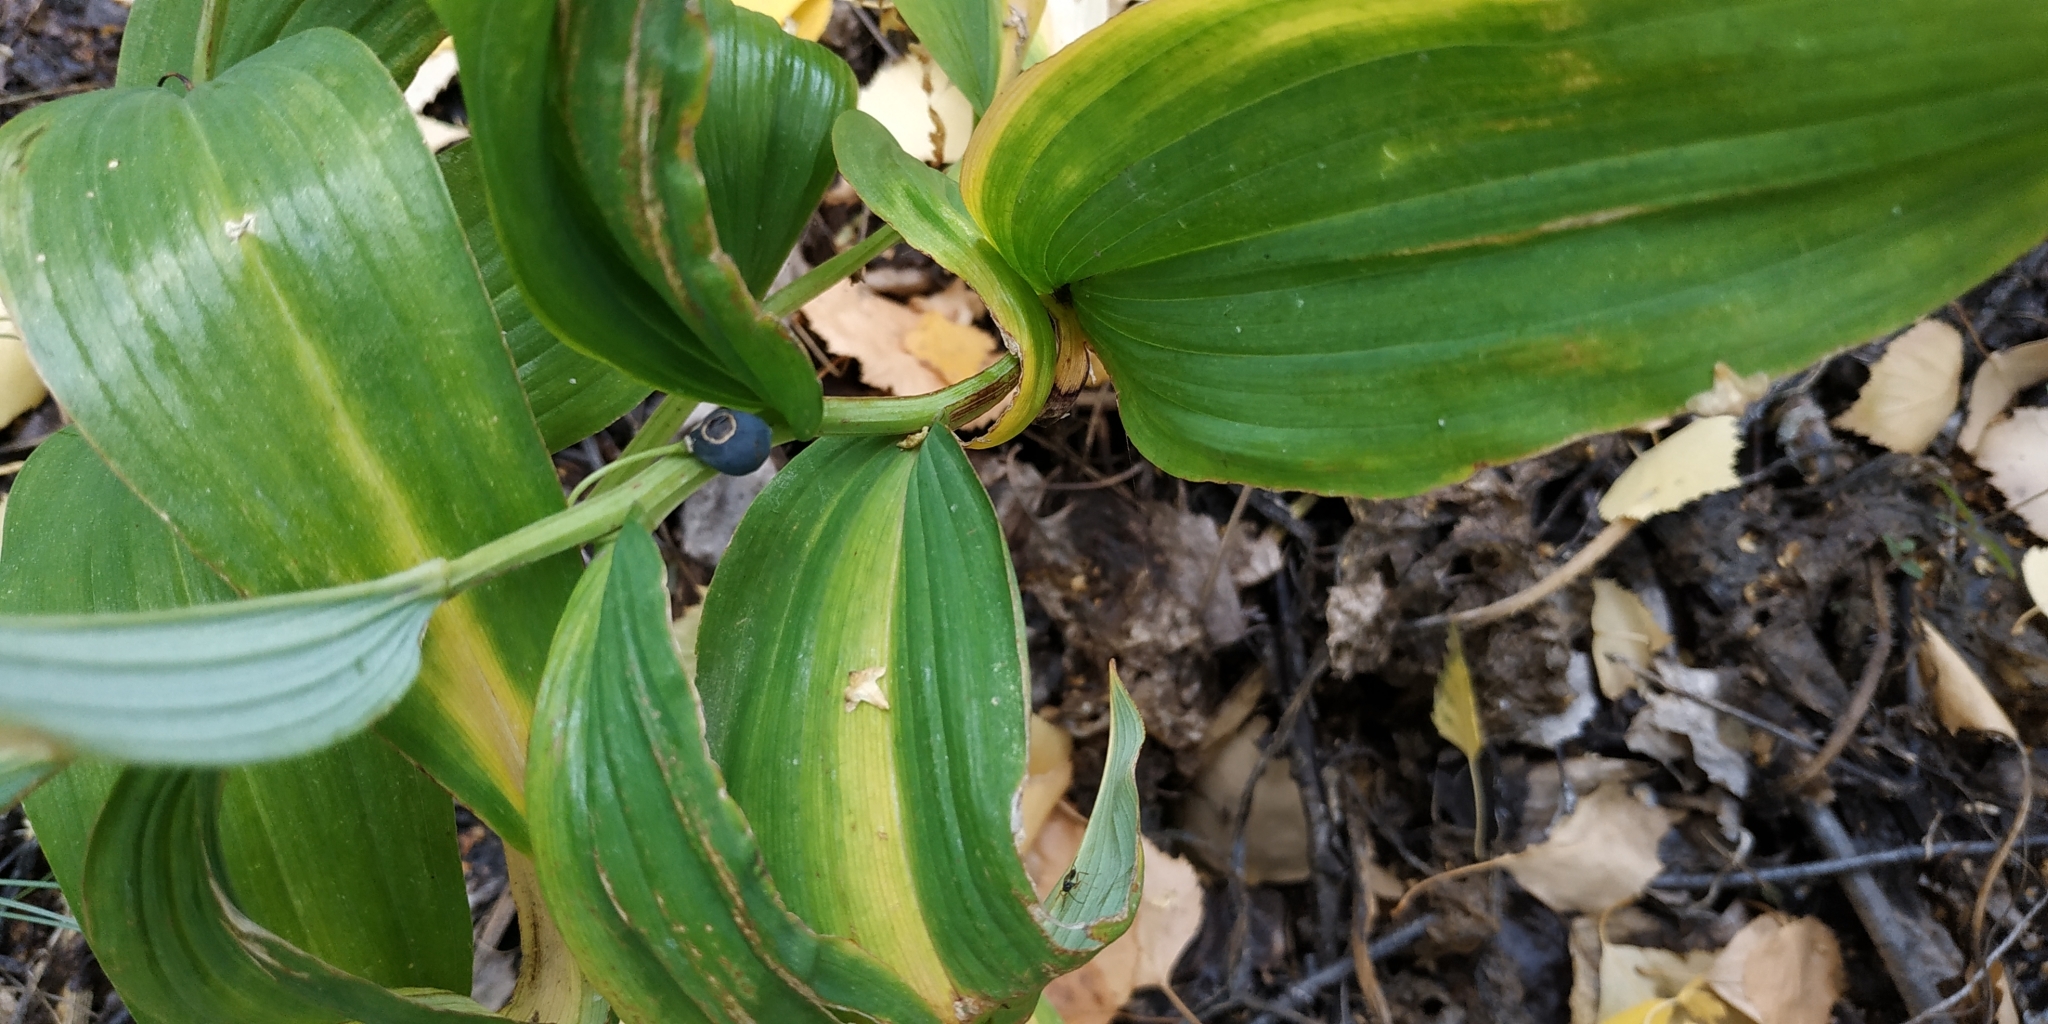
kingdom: Plantae
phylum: Tracheophyta
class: Liliopsida
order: Asparagales
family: Asparagaceae
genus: Polygonatum
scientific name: Polygonatum odoratum
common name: Angular solomon's-seal
